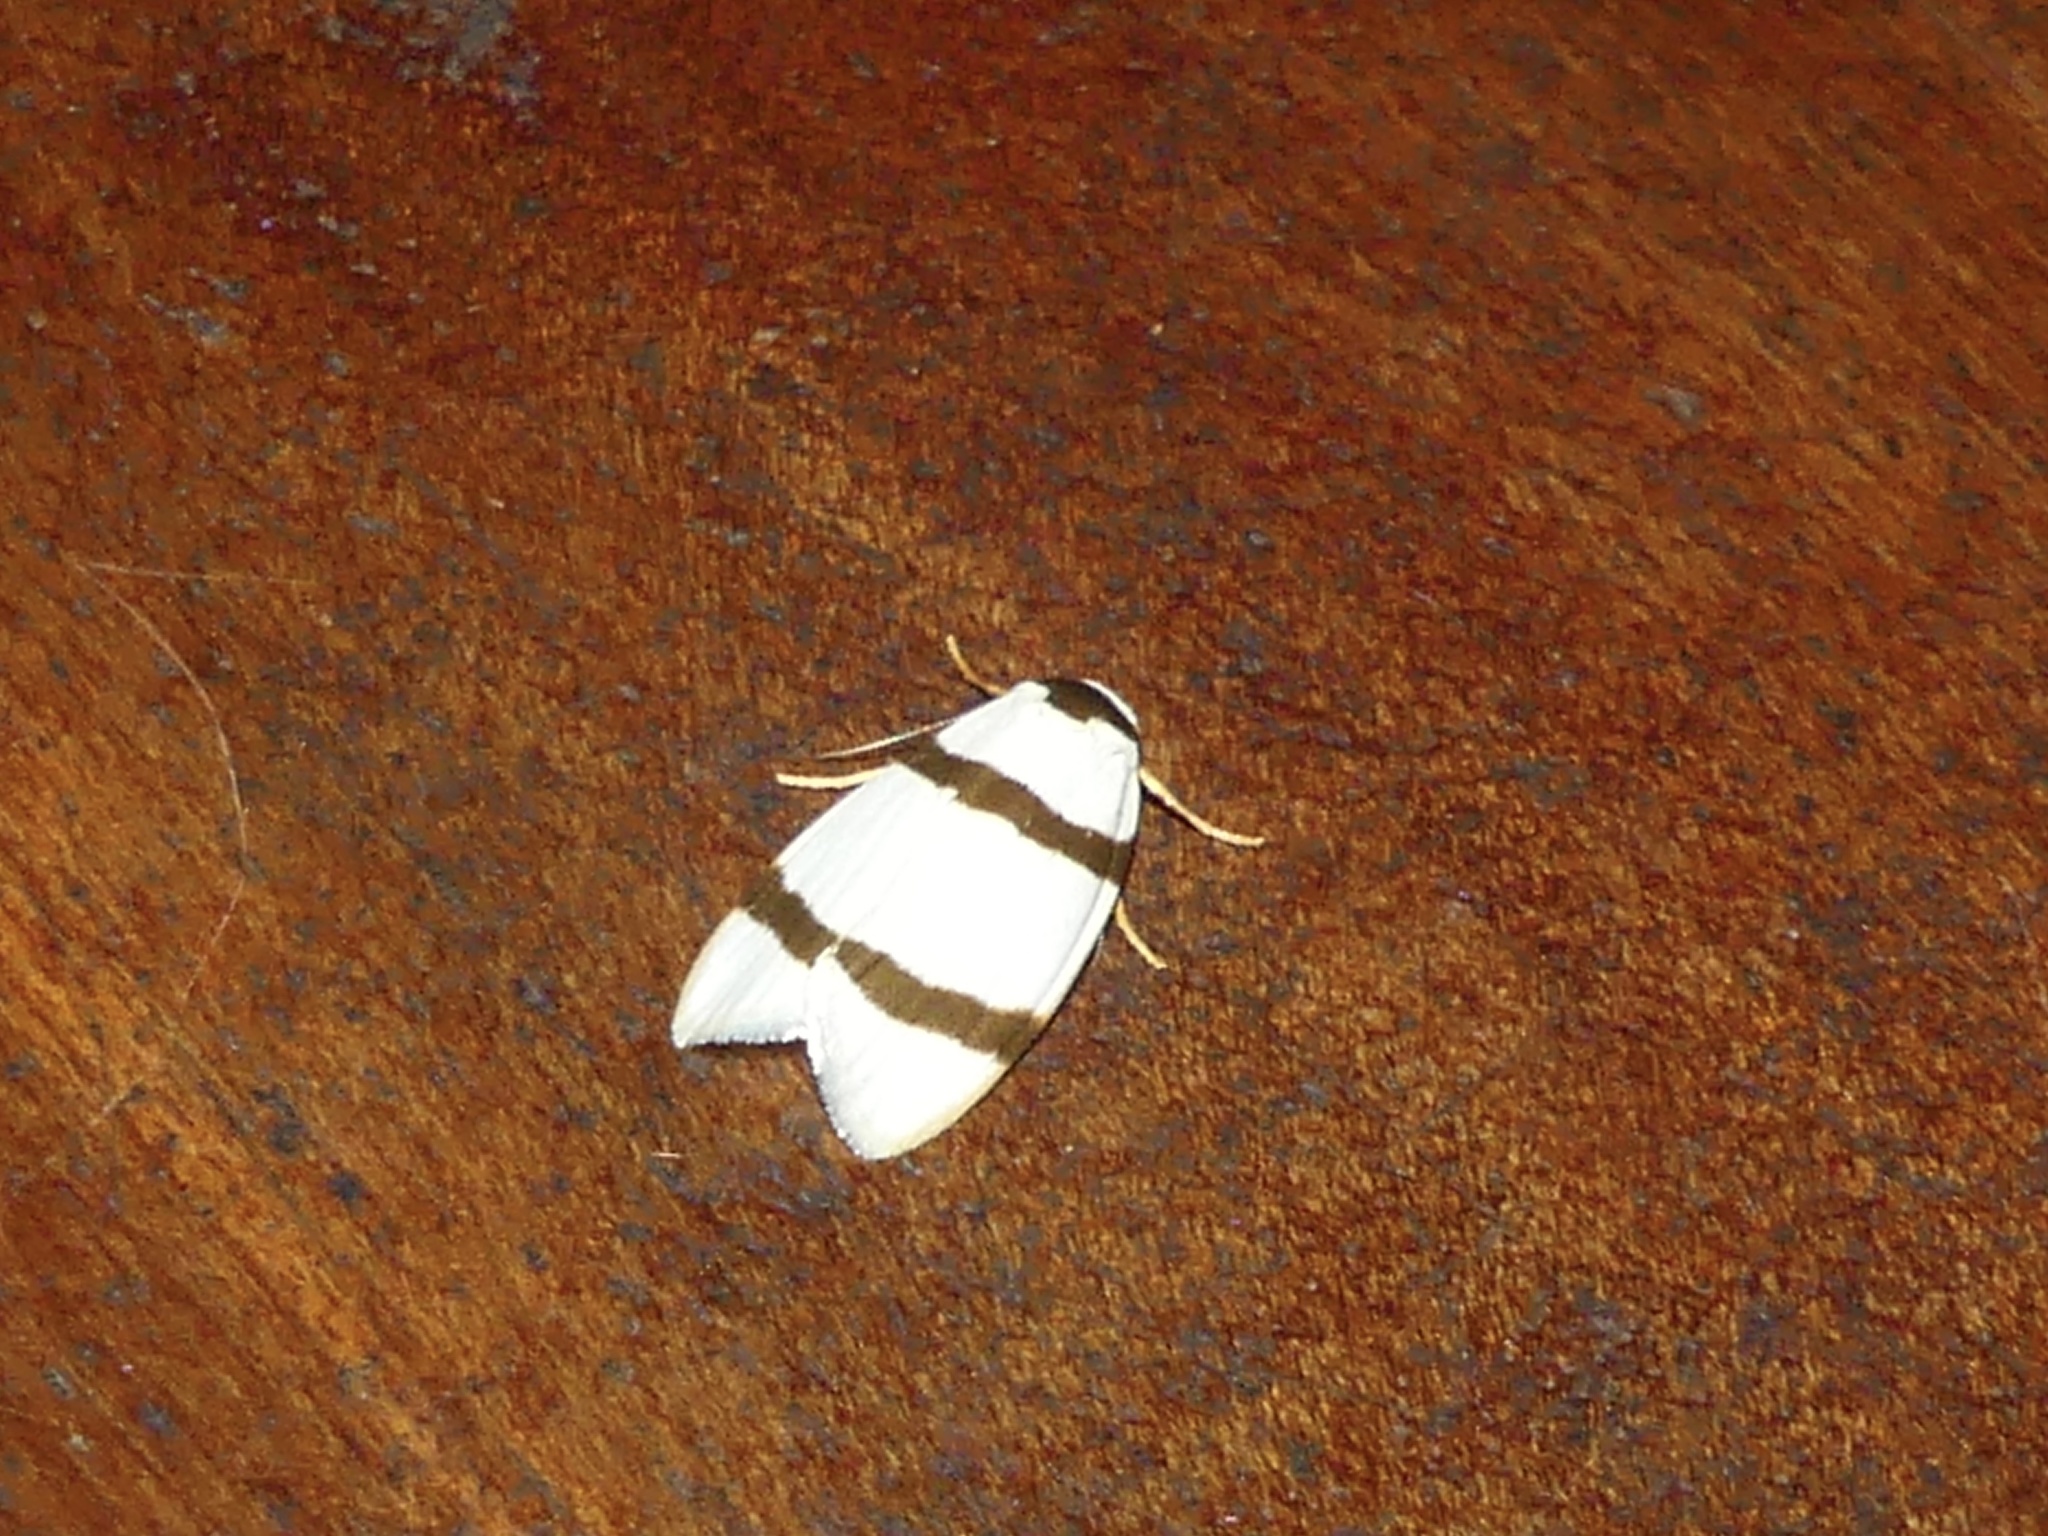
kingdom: Animalia
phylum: Arthropoda
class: Insecta
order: Lepidoptera
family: Erebidae
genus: Padenia
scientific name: Padenia obliquifascia
